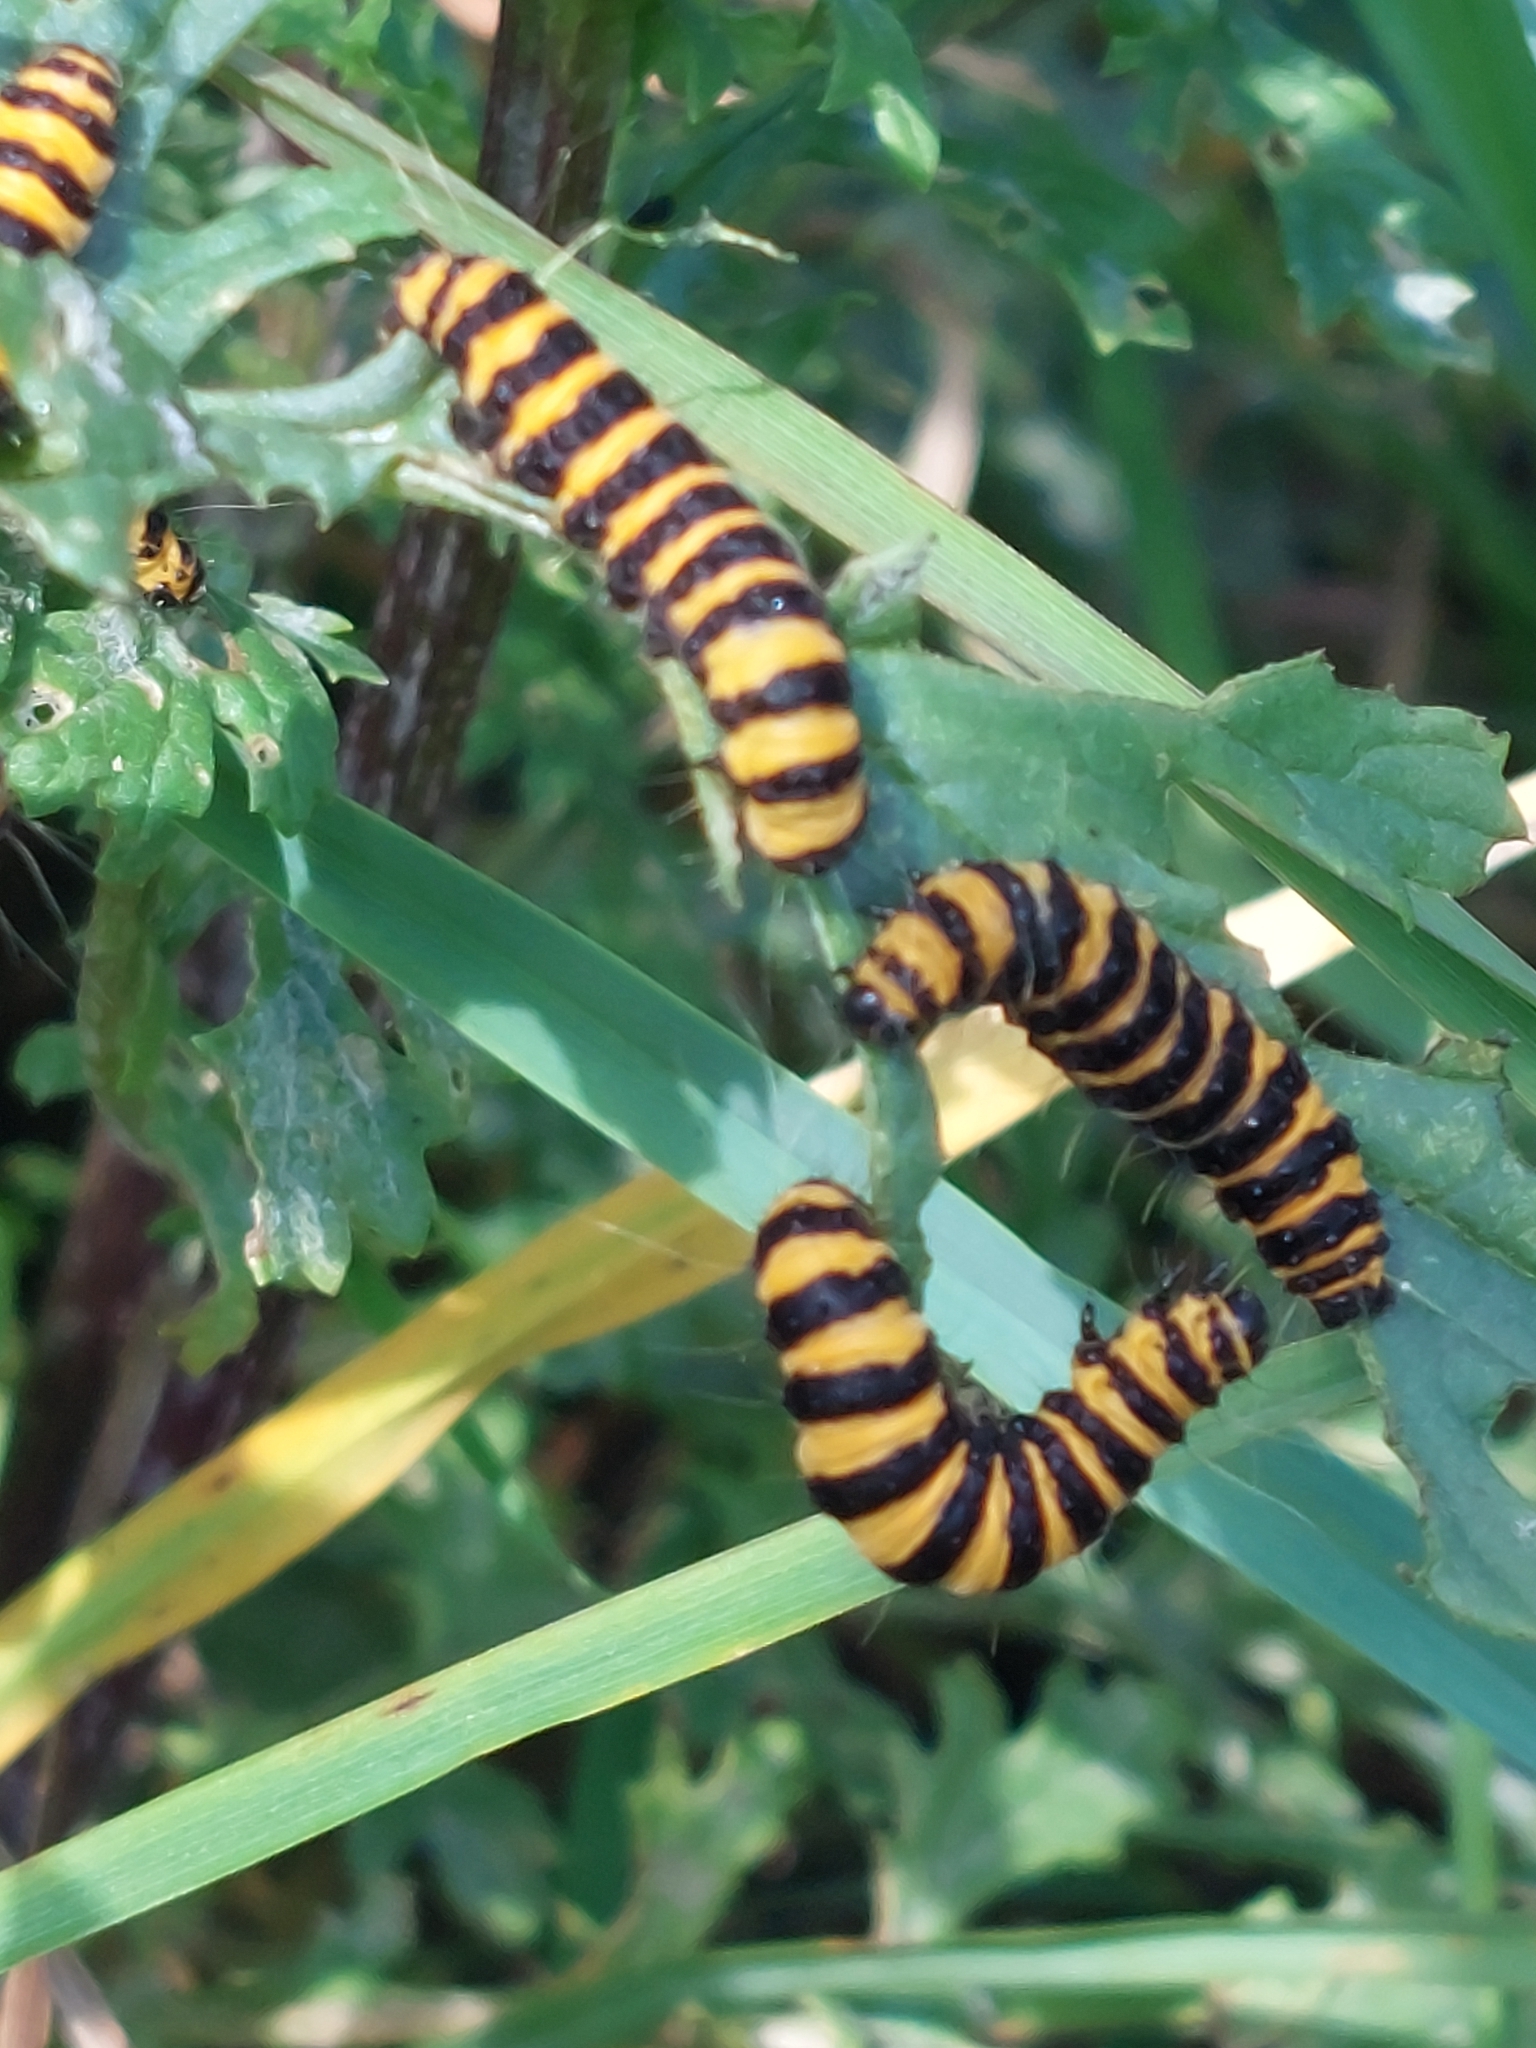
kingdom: Animalia
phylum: Arthropoda
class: Insecta
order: Lepidoptera
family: Erebidae
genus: Tyria
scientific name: Tyria jacobaeae
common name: Cinnabar
